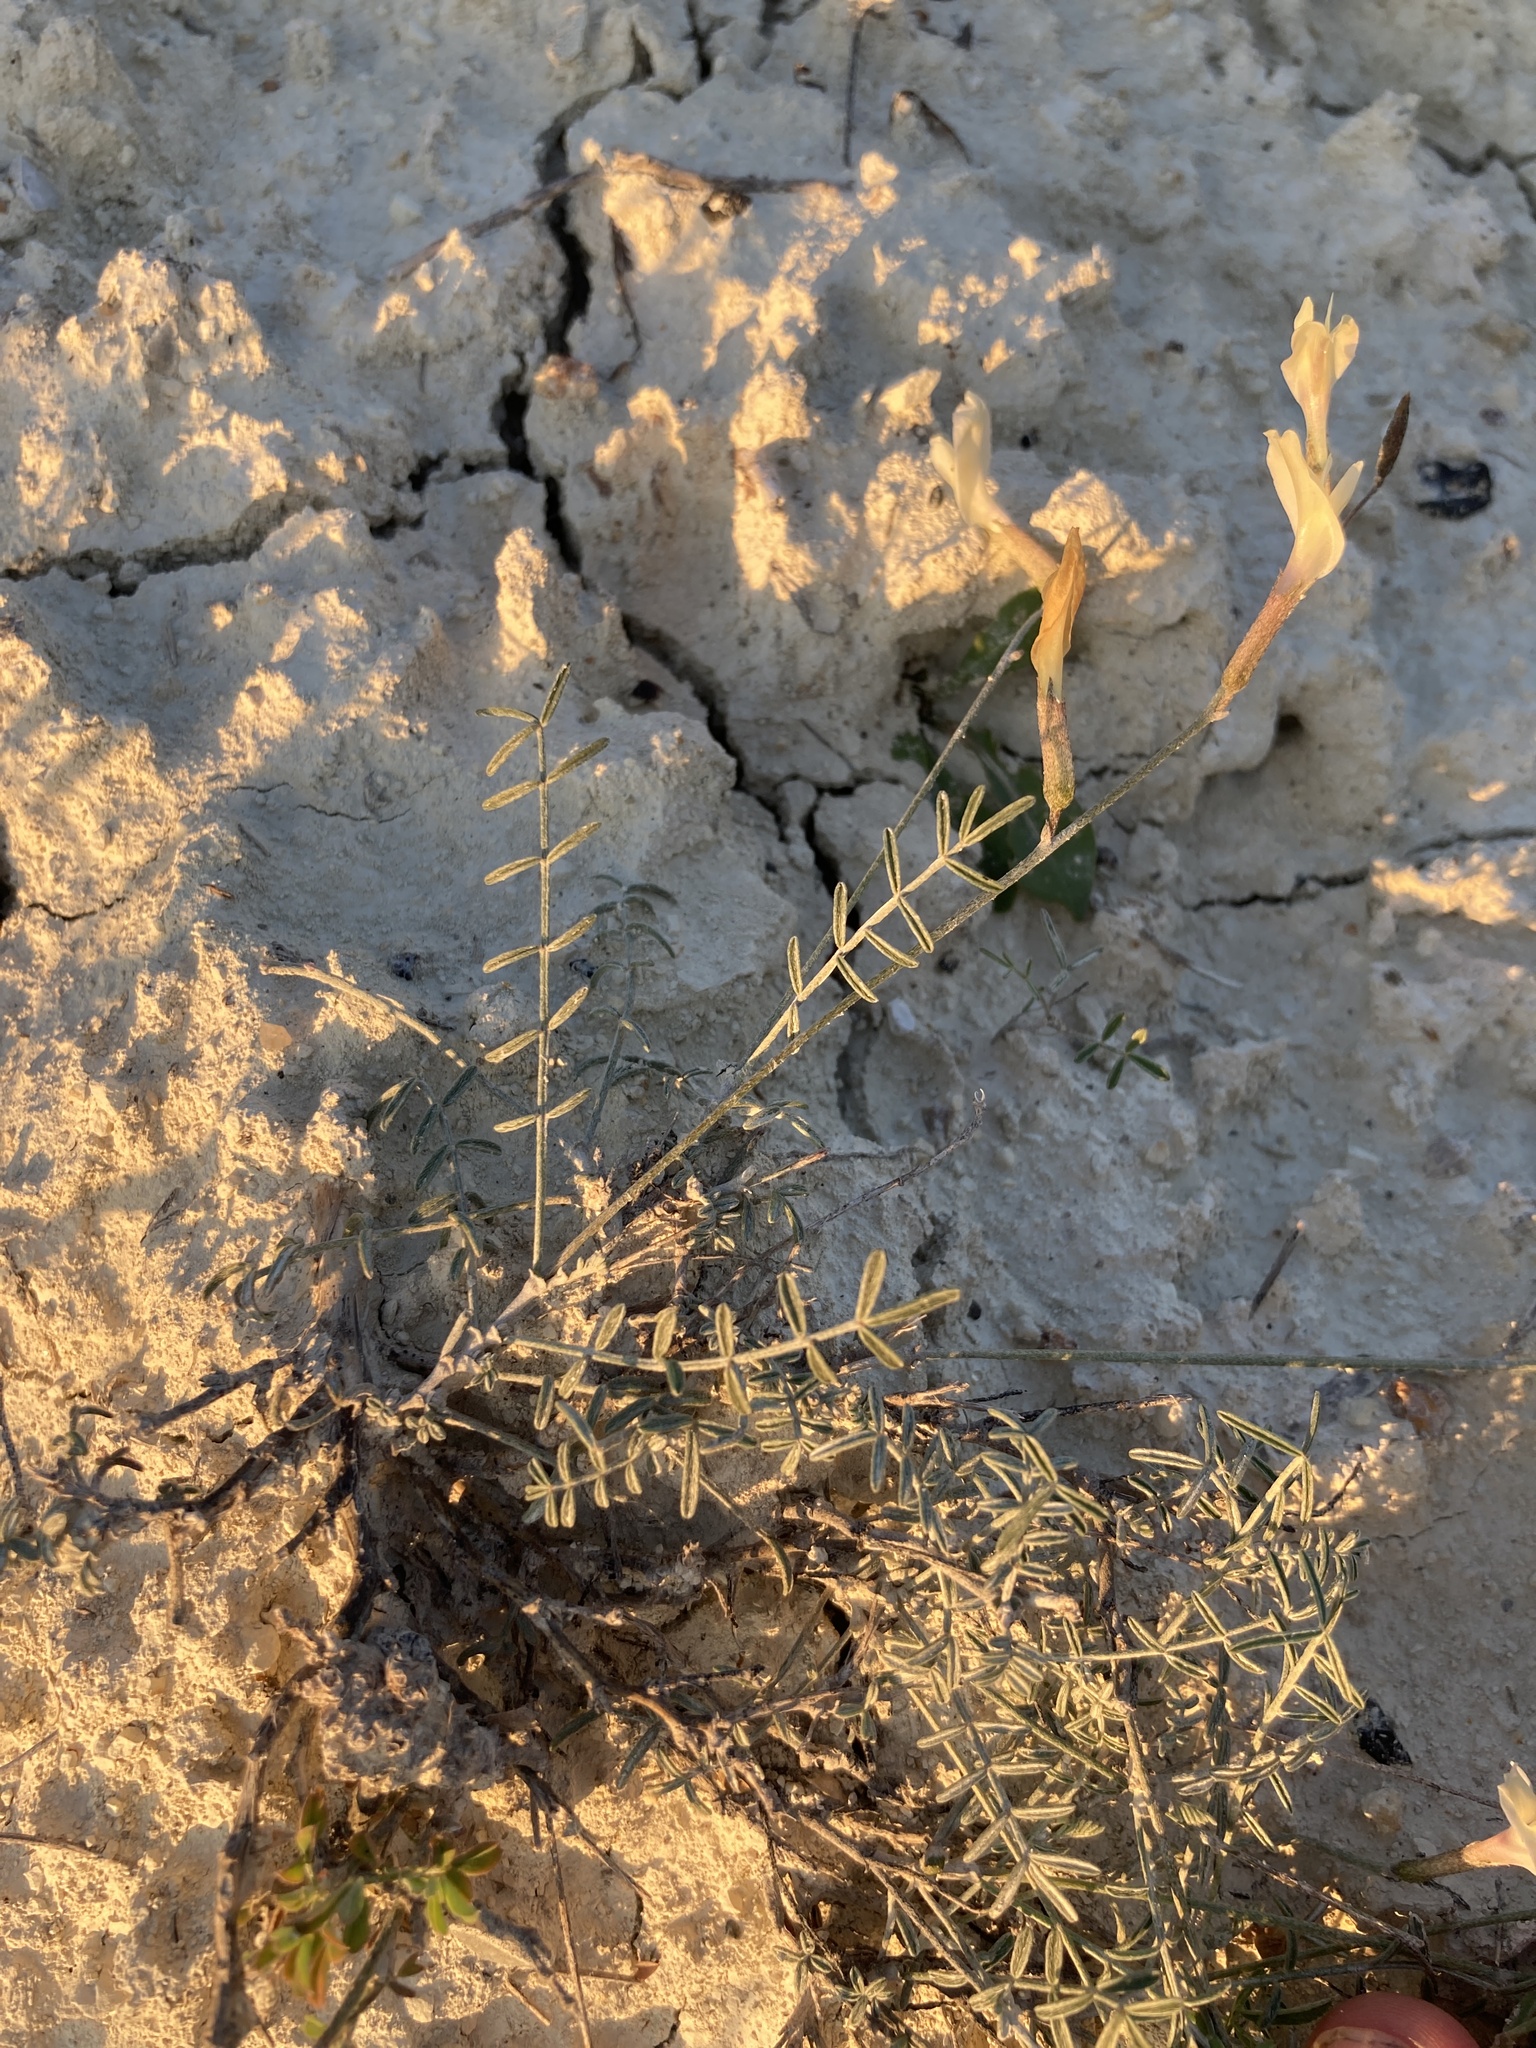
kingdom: Plantae
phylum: Tracheophyta
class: Magnoliopsida
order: Fabales
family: Fabaceae
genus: Astragalus
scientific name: Astragalus ucrainicus
